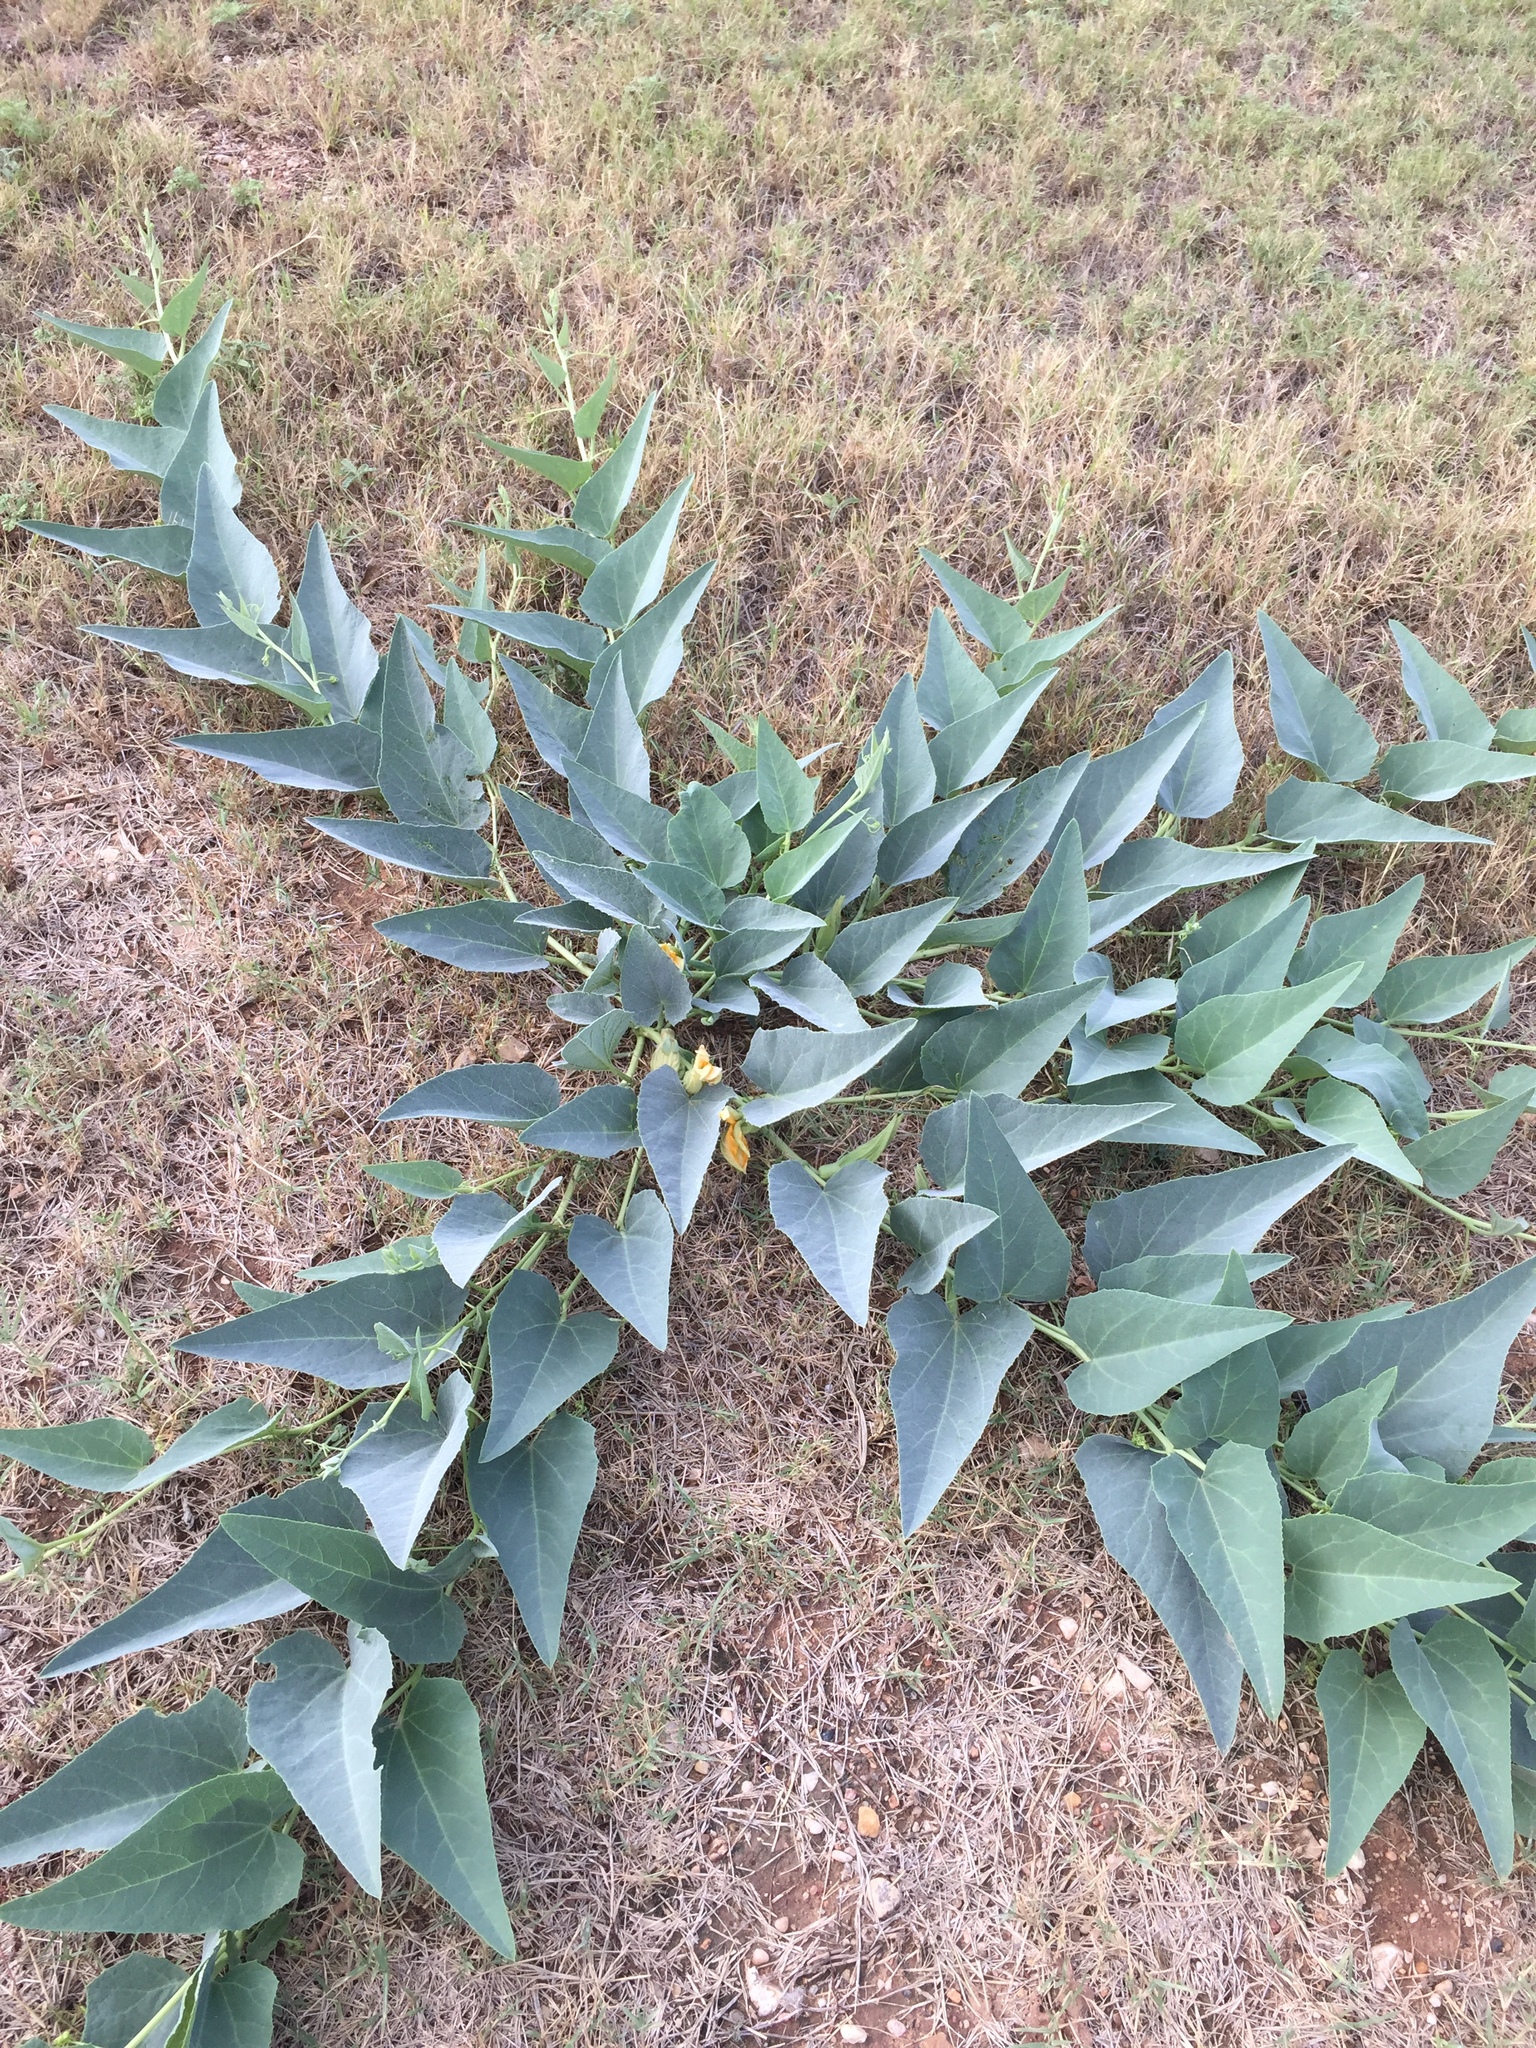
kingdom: Plantae
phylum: Tracheophyta
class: Magnoliopsida
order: Cucurbitales
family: Cucurbitaceae
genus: Cucurbita
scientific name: Cucurbita foetidissima
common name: Buffalo gourd
